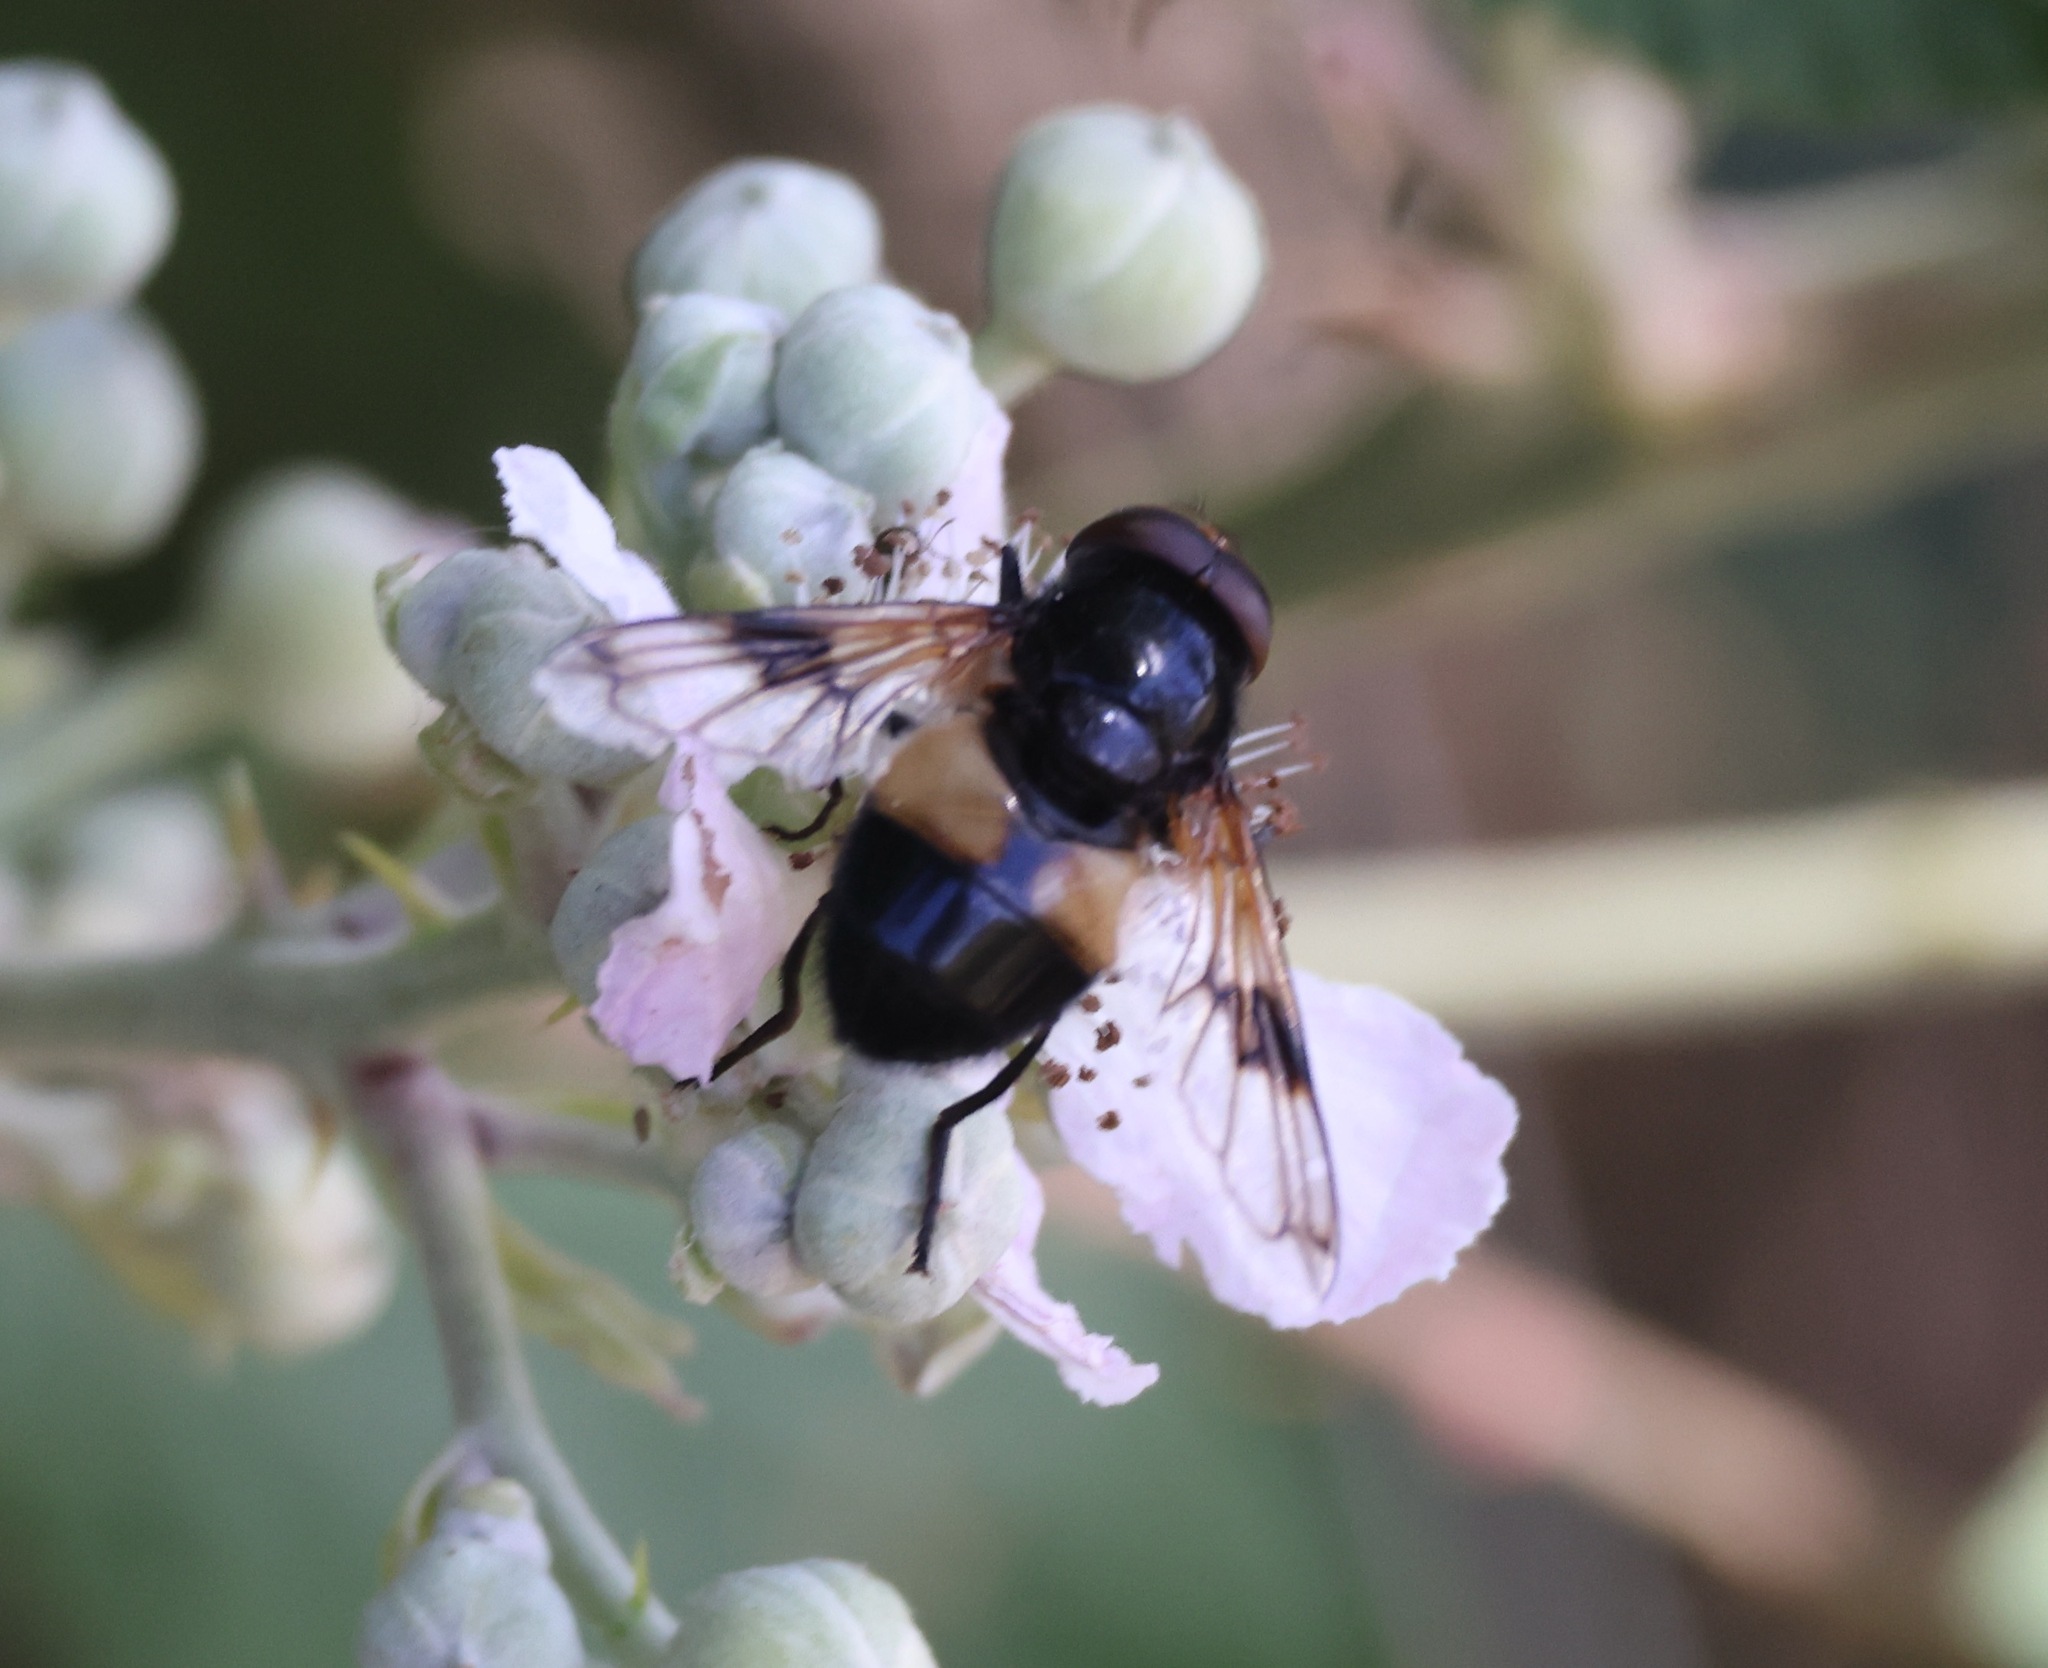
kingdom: Animalia
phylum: Arthropoda
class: Insecta
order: Diptera
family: Syrphidae
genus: Volucella
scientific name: Volucella pellucens
